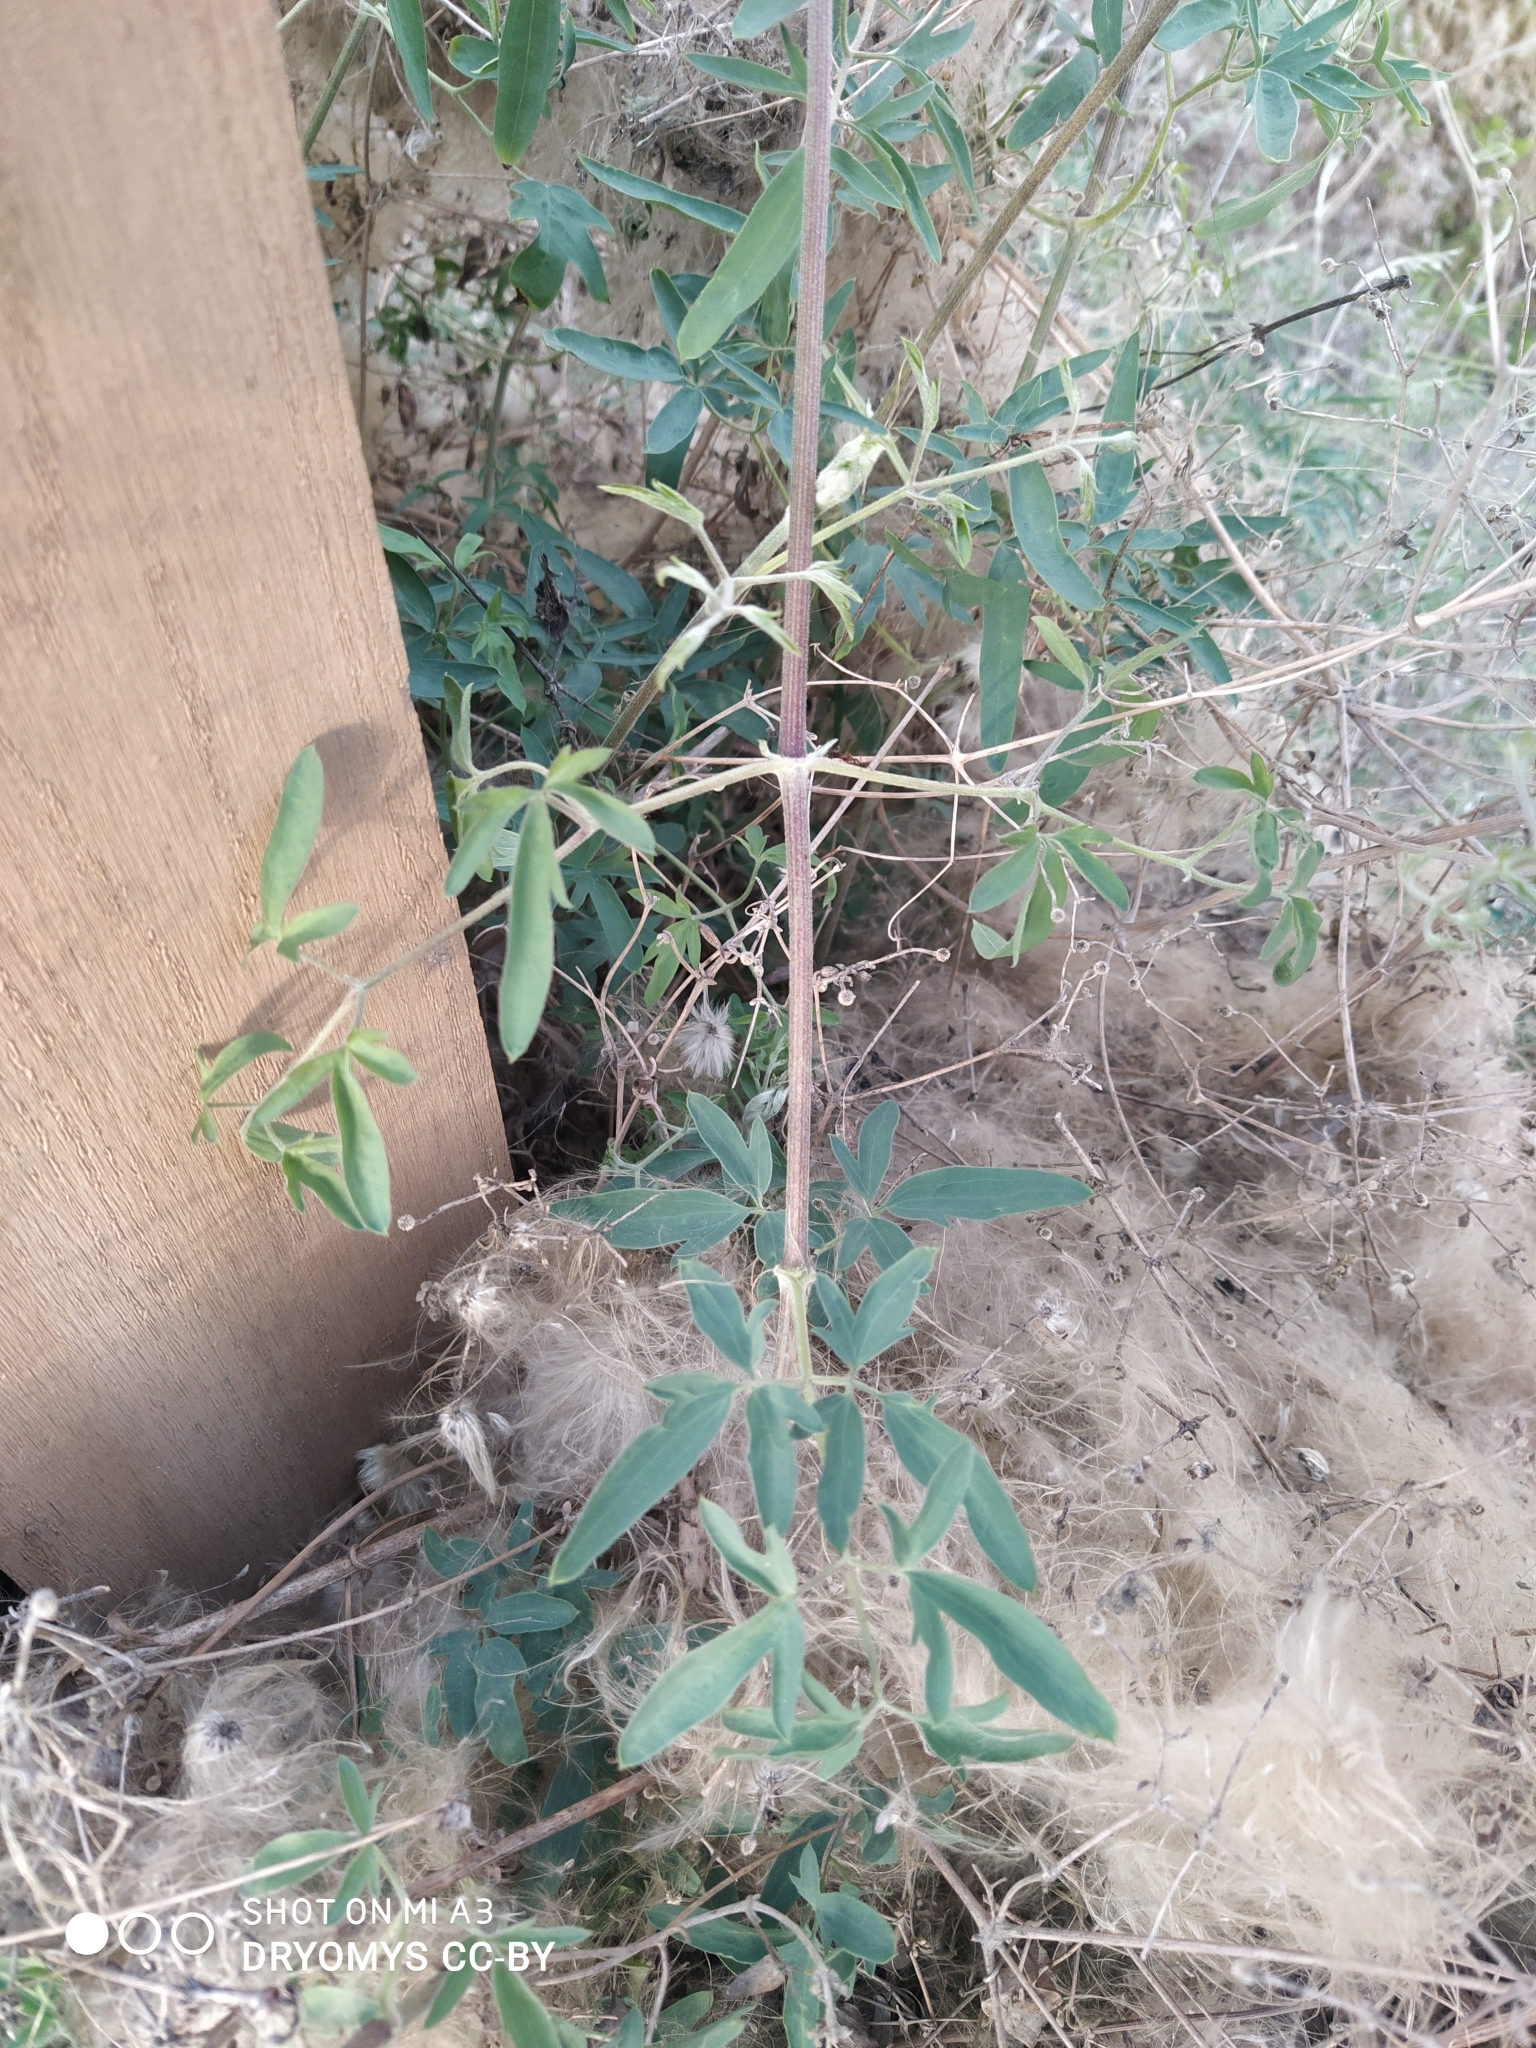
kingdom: Plantae
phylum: Tracheophyta
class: Magnoliopsida
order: Ranunculales
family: Ranunculaceae
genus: Clematis
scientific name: Clematis orientalis
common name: Oriental virgin's-bower
